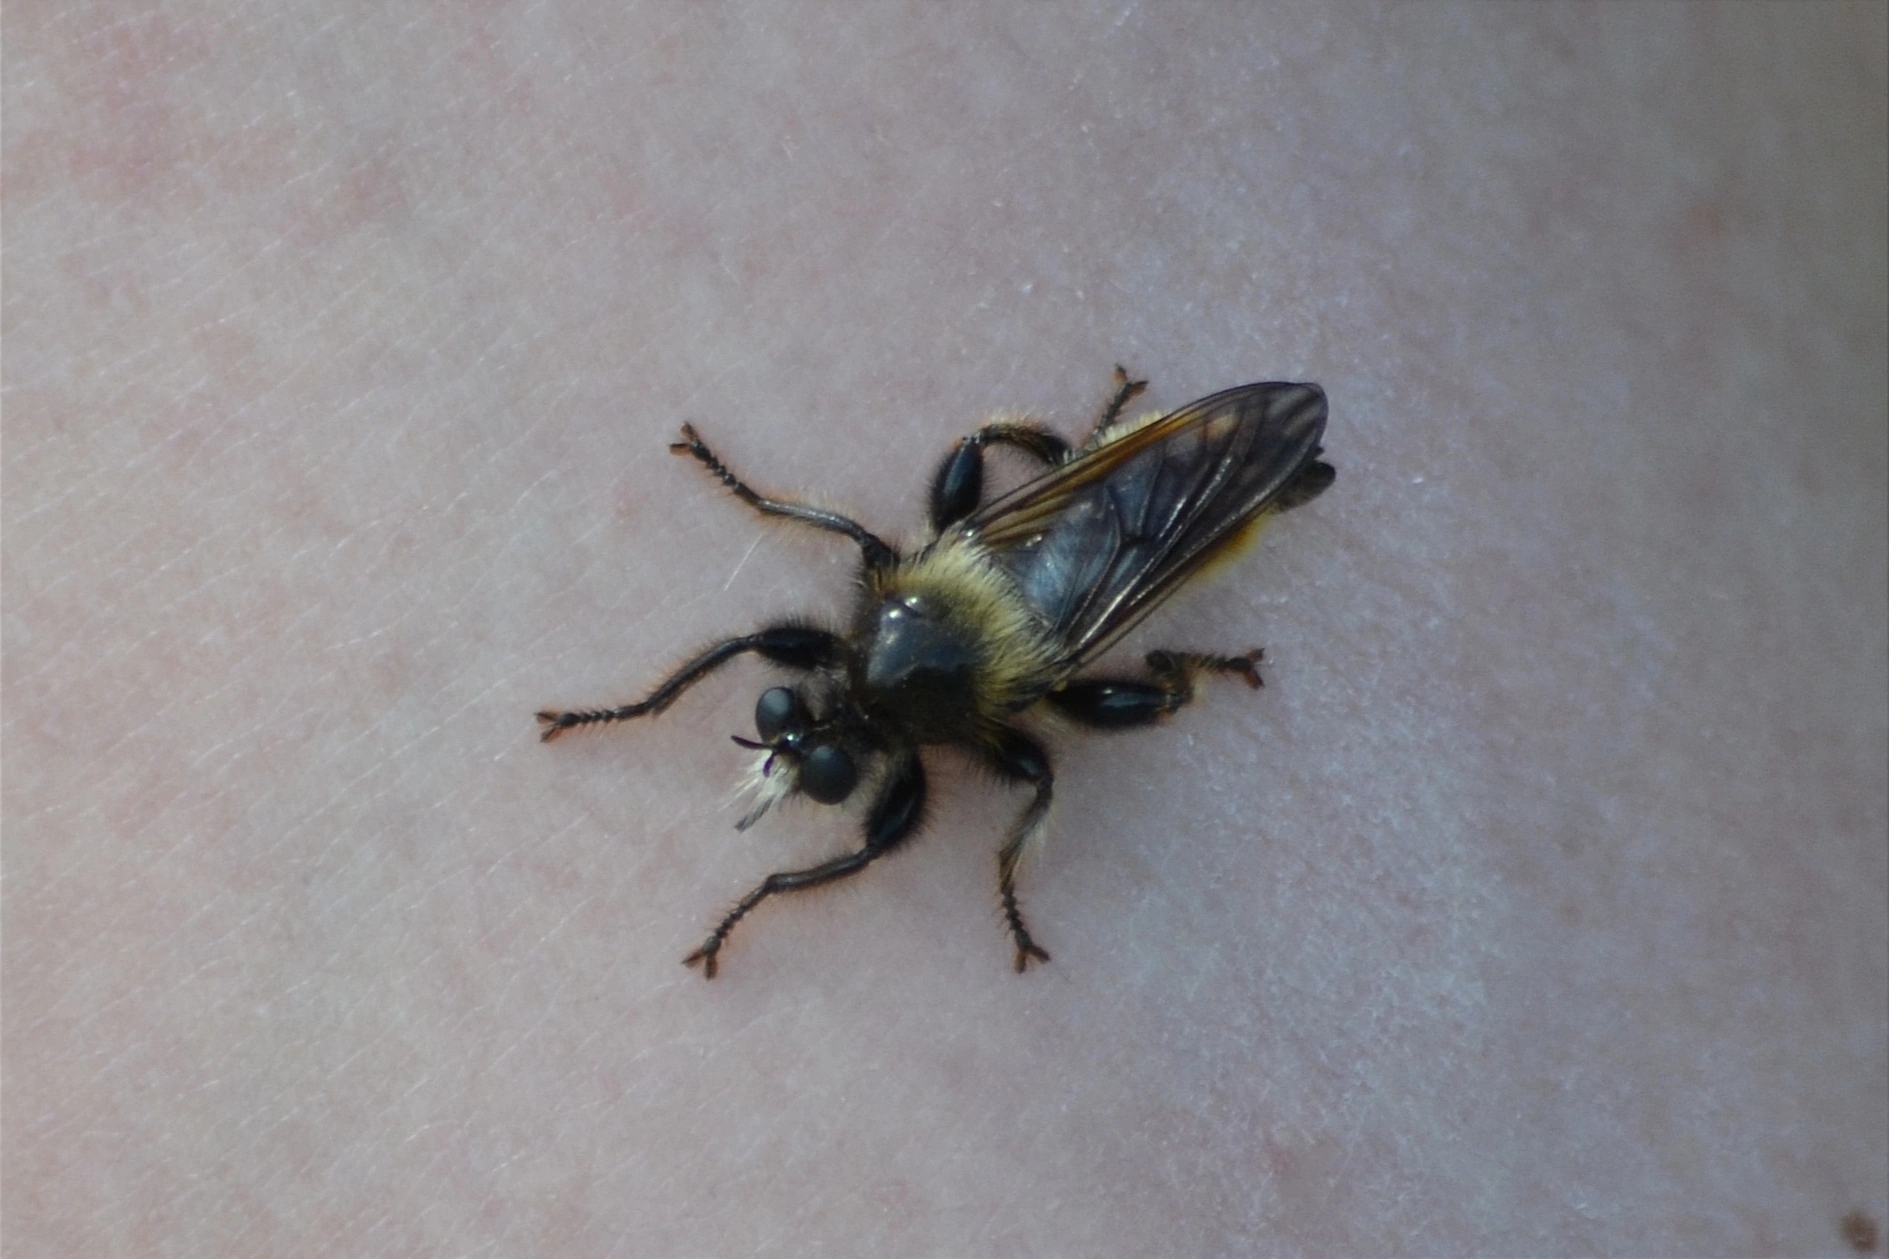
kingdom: Animalia
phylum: Arthropoda
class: Insecta
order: Diptera
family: Asilidae
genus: Laphria
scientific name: Laphria flava
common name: Bumblebee robberfly
